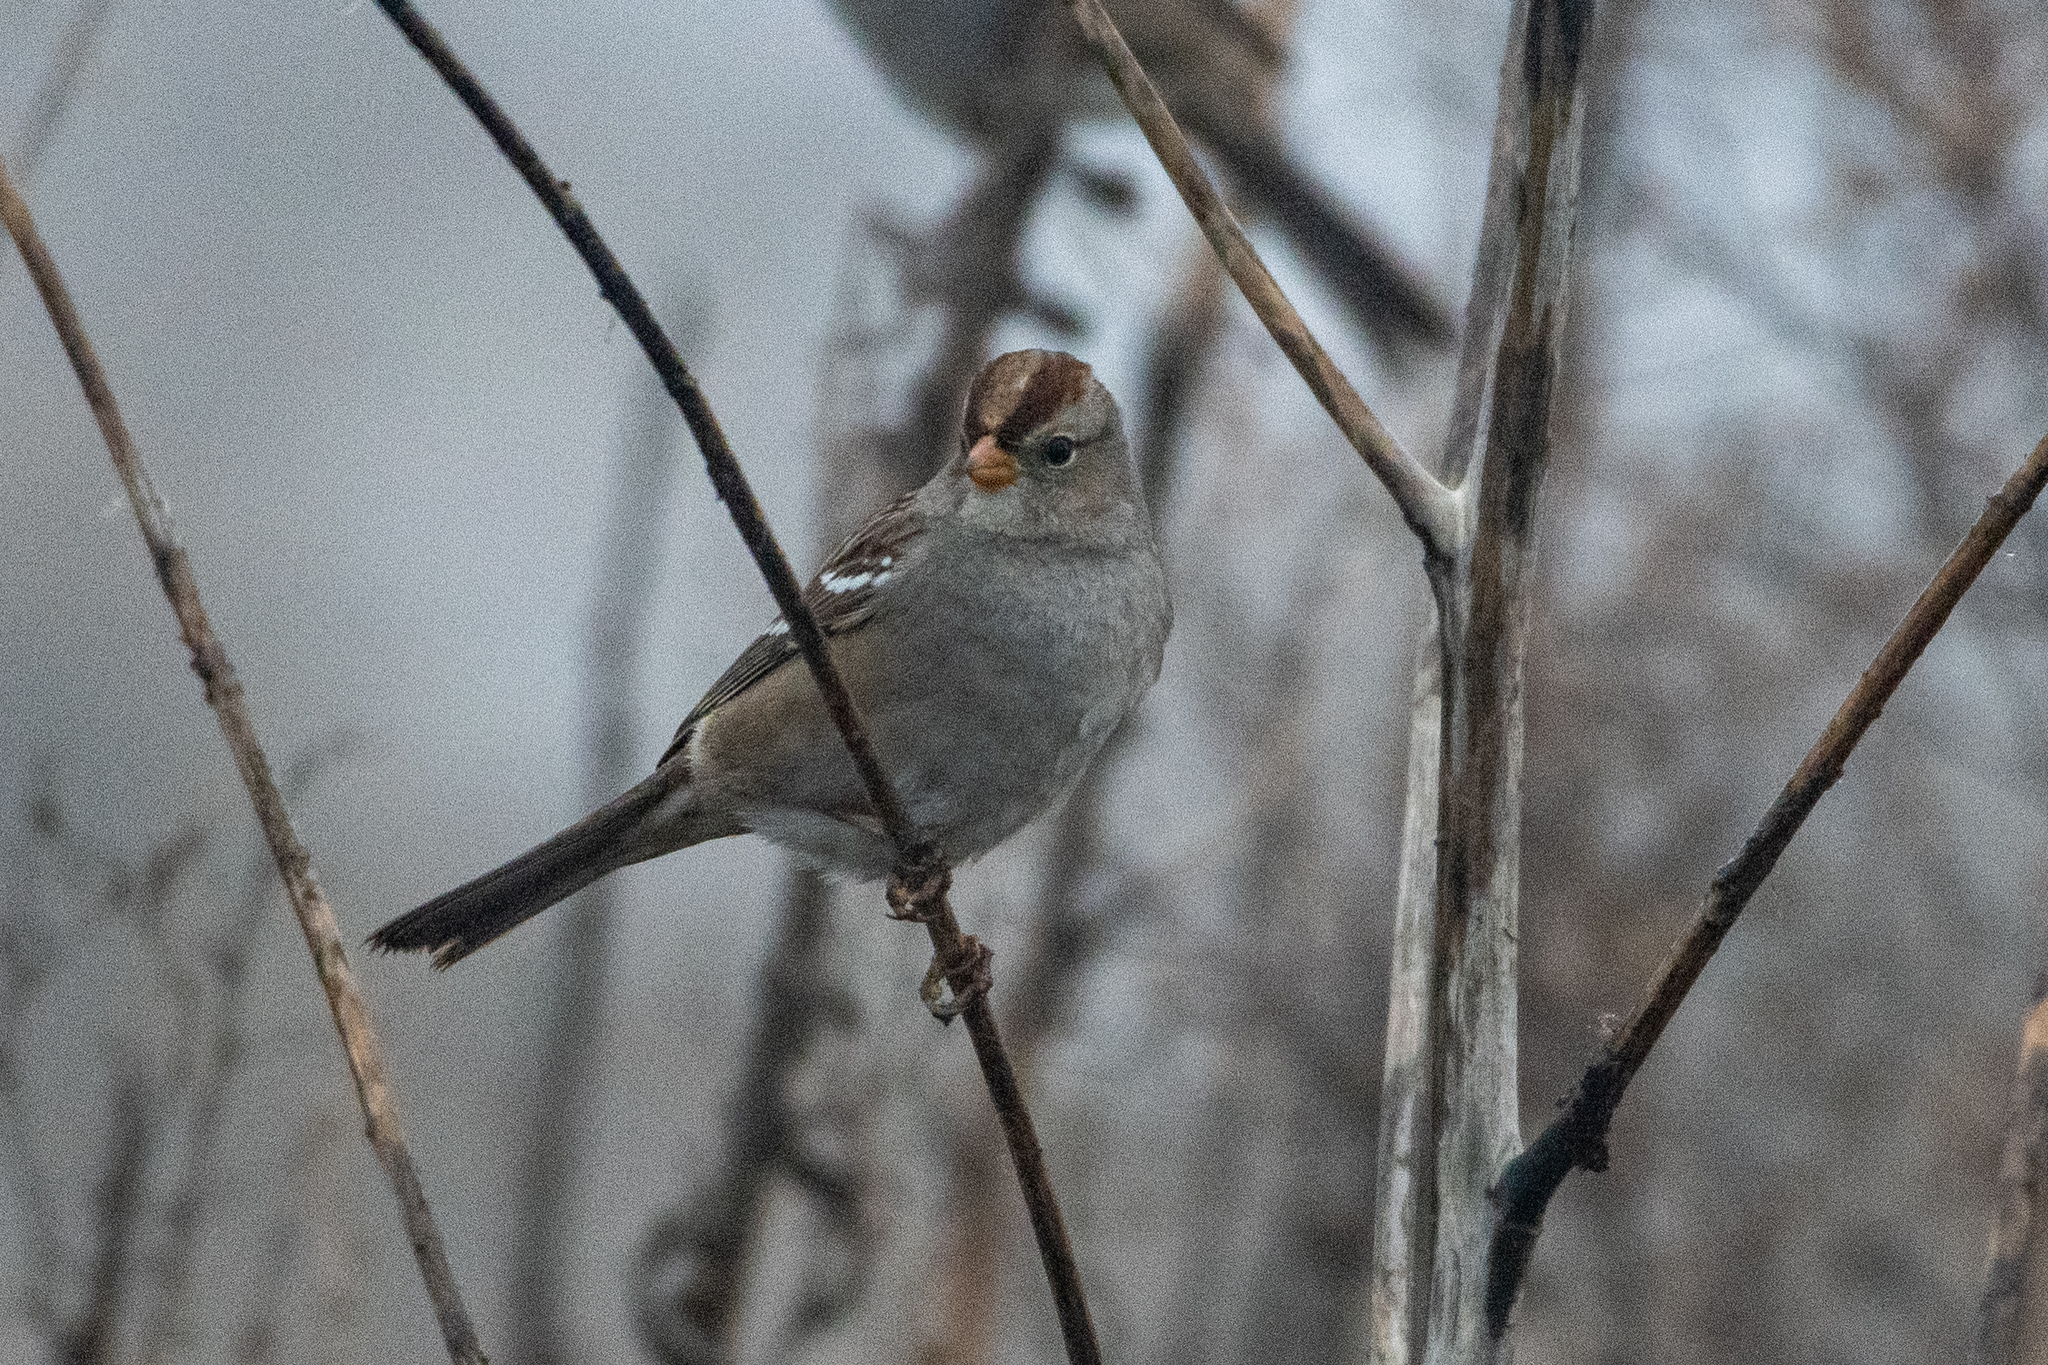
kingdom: Animalia
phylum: Chordata
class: Aves
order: Passeriformes
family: Passerellidae
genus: Zonotrichia
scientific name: Zonotrichia leucophrys
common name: White-crowned sparrow
